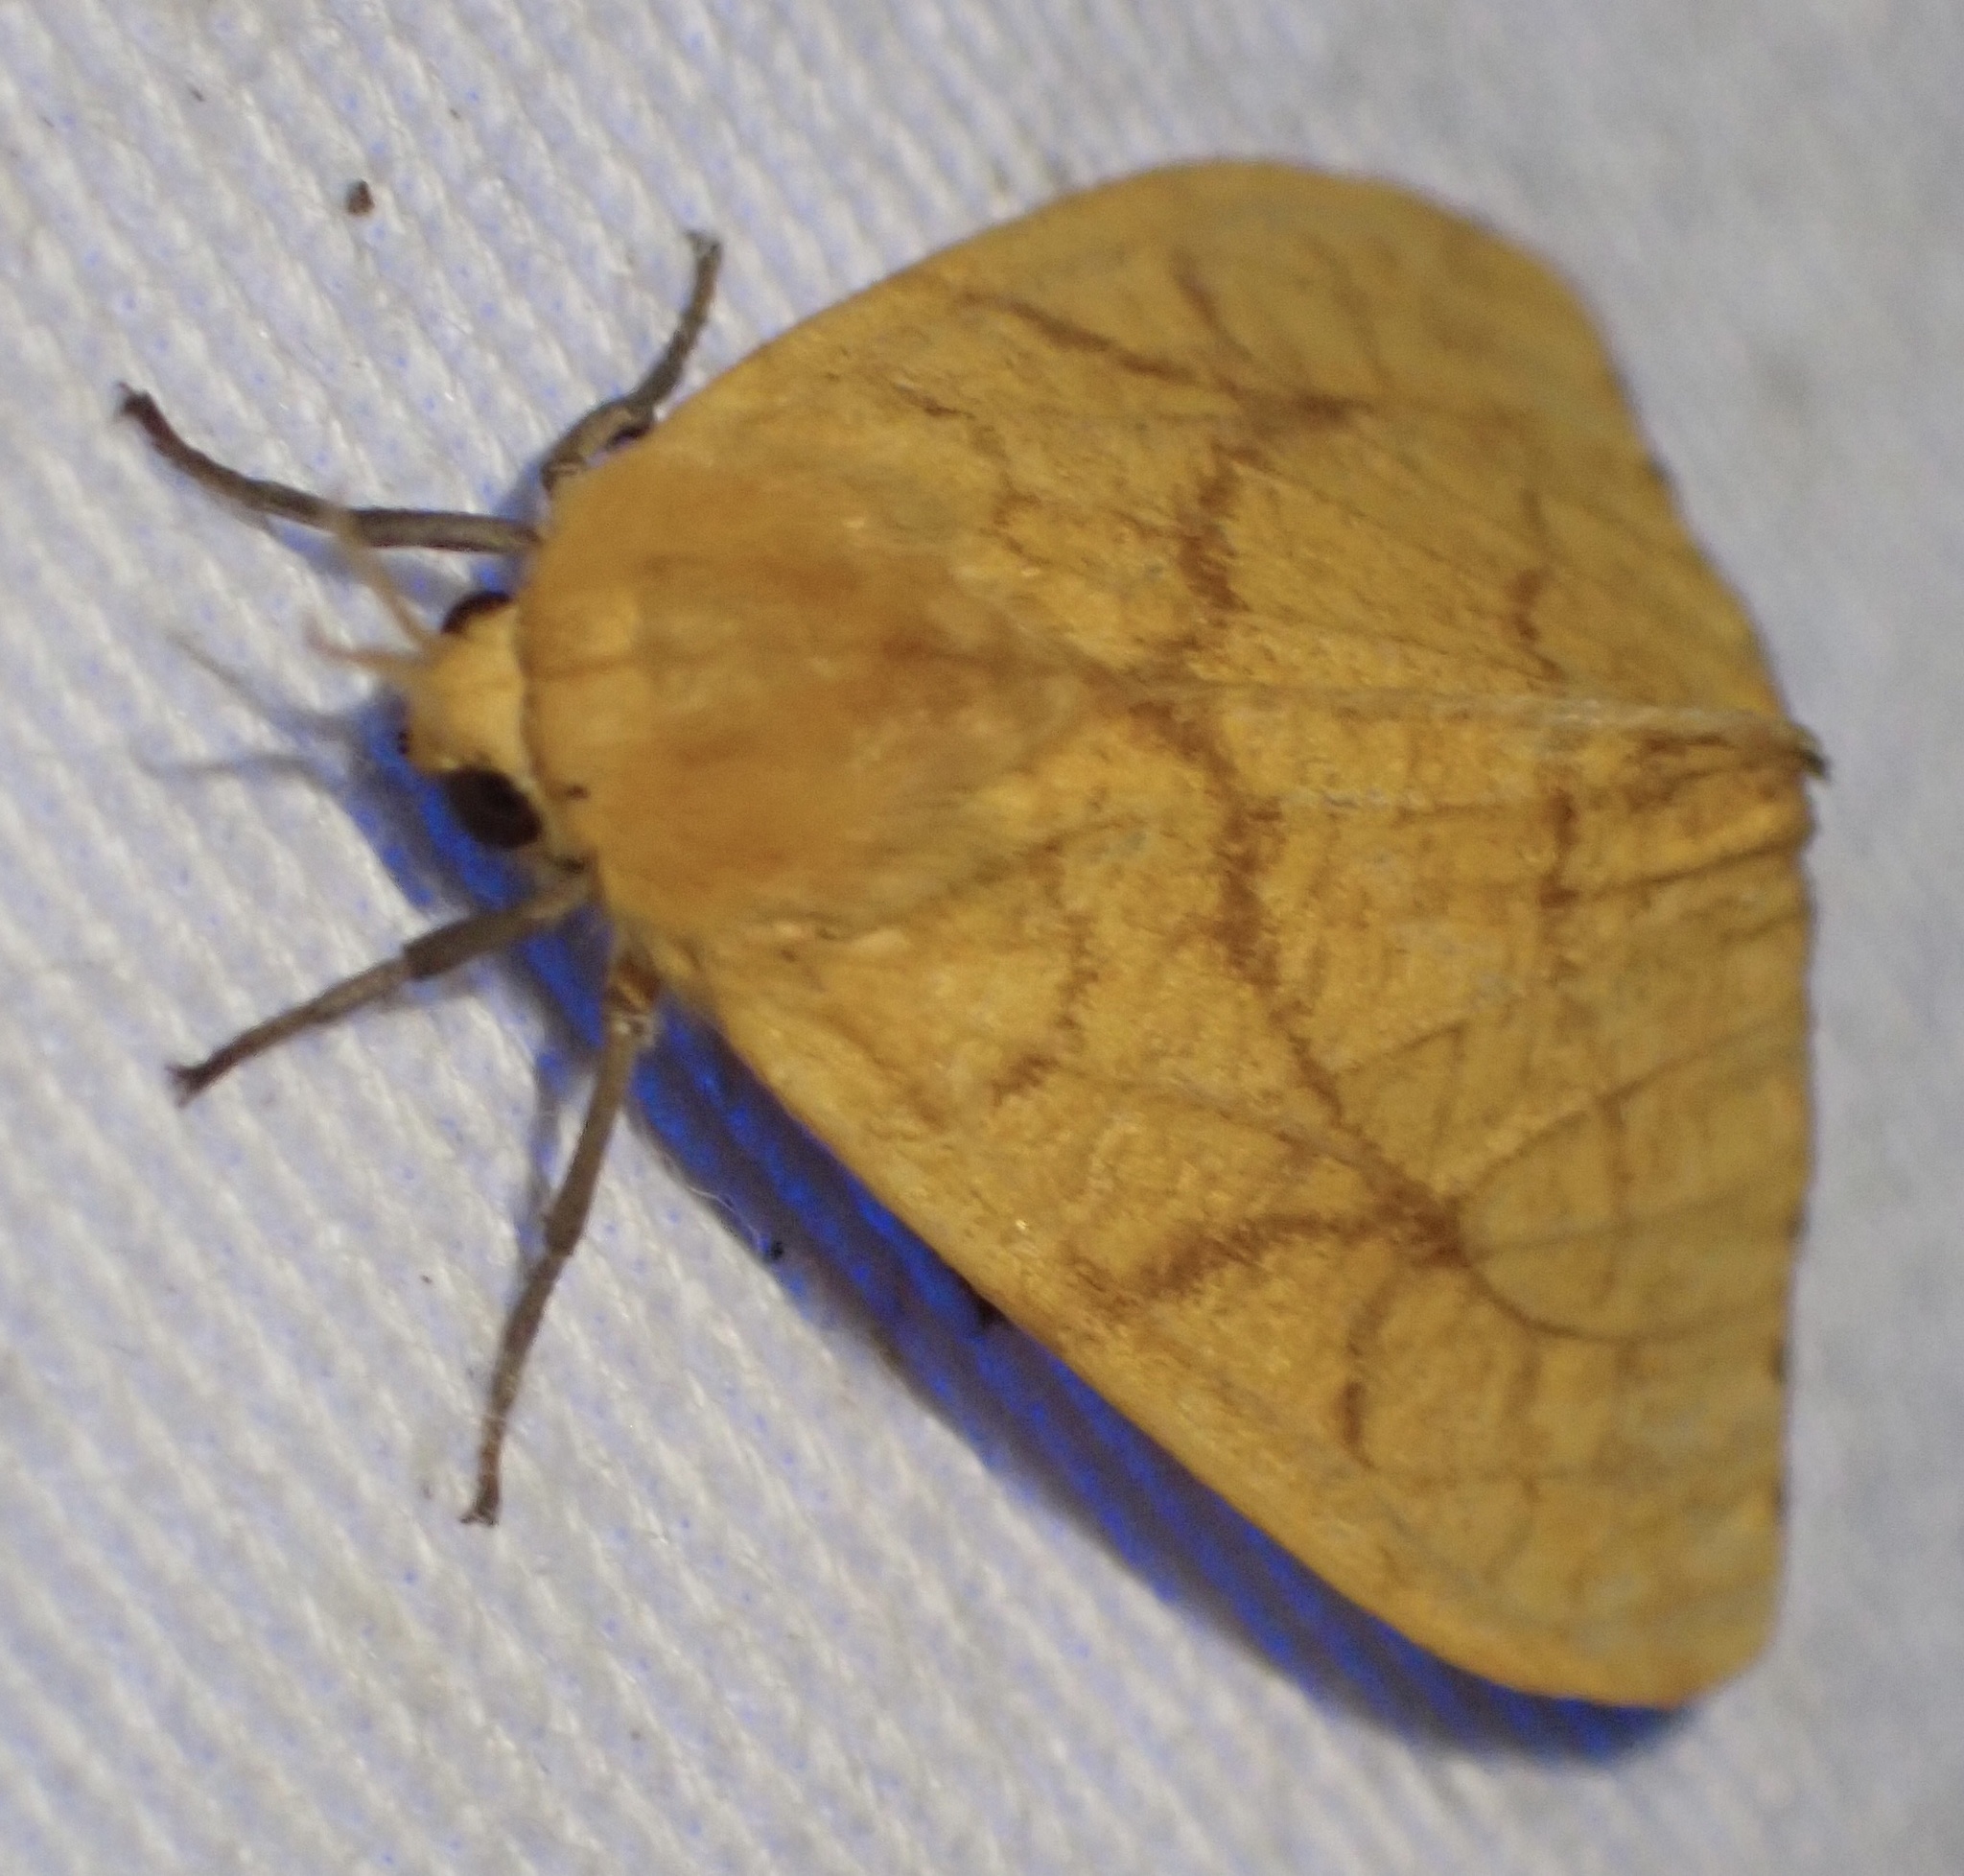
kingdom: Animalia
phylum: Arthropoda
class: Insecta
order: Lepidoptera
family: Erebidae
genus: Monstruncusarctia
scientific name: Monstruncusarctia aurantiaca
